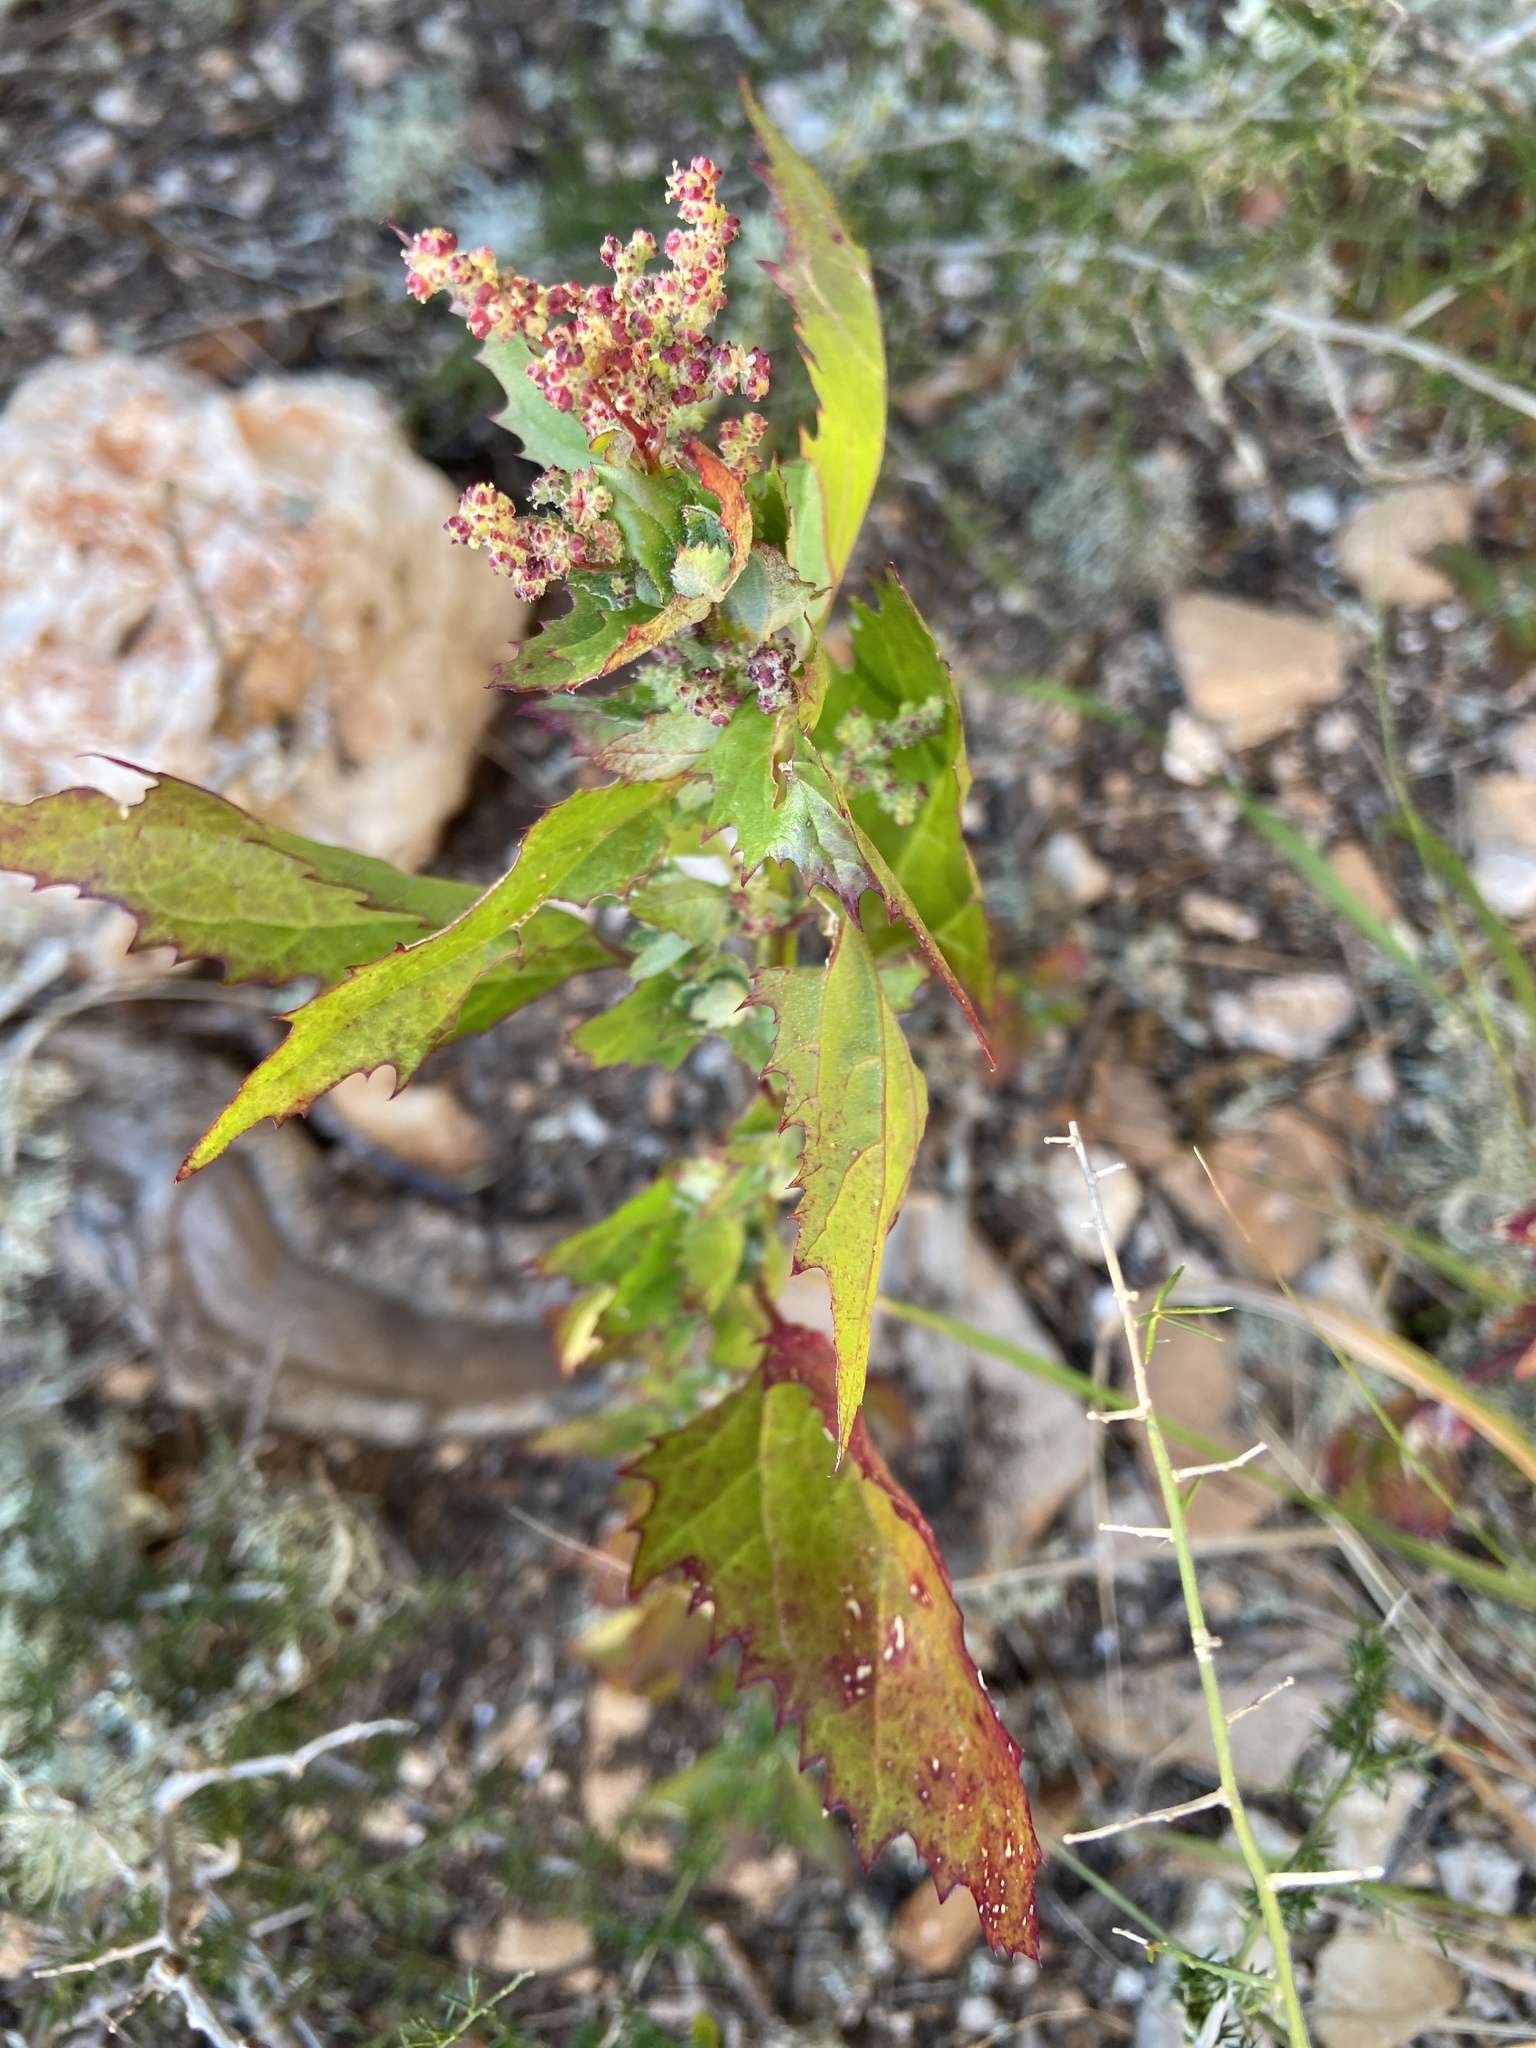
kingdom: Plantae
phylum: Tracheophyta
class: Magnoliopsida
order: Caryophyllales
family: Amaranthaceae
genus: Chenopodiastrum
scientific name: Chenopodiastrum murale
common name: Sowbane
